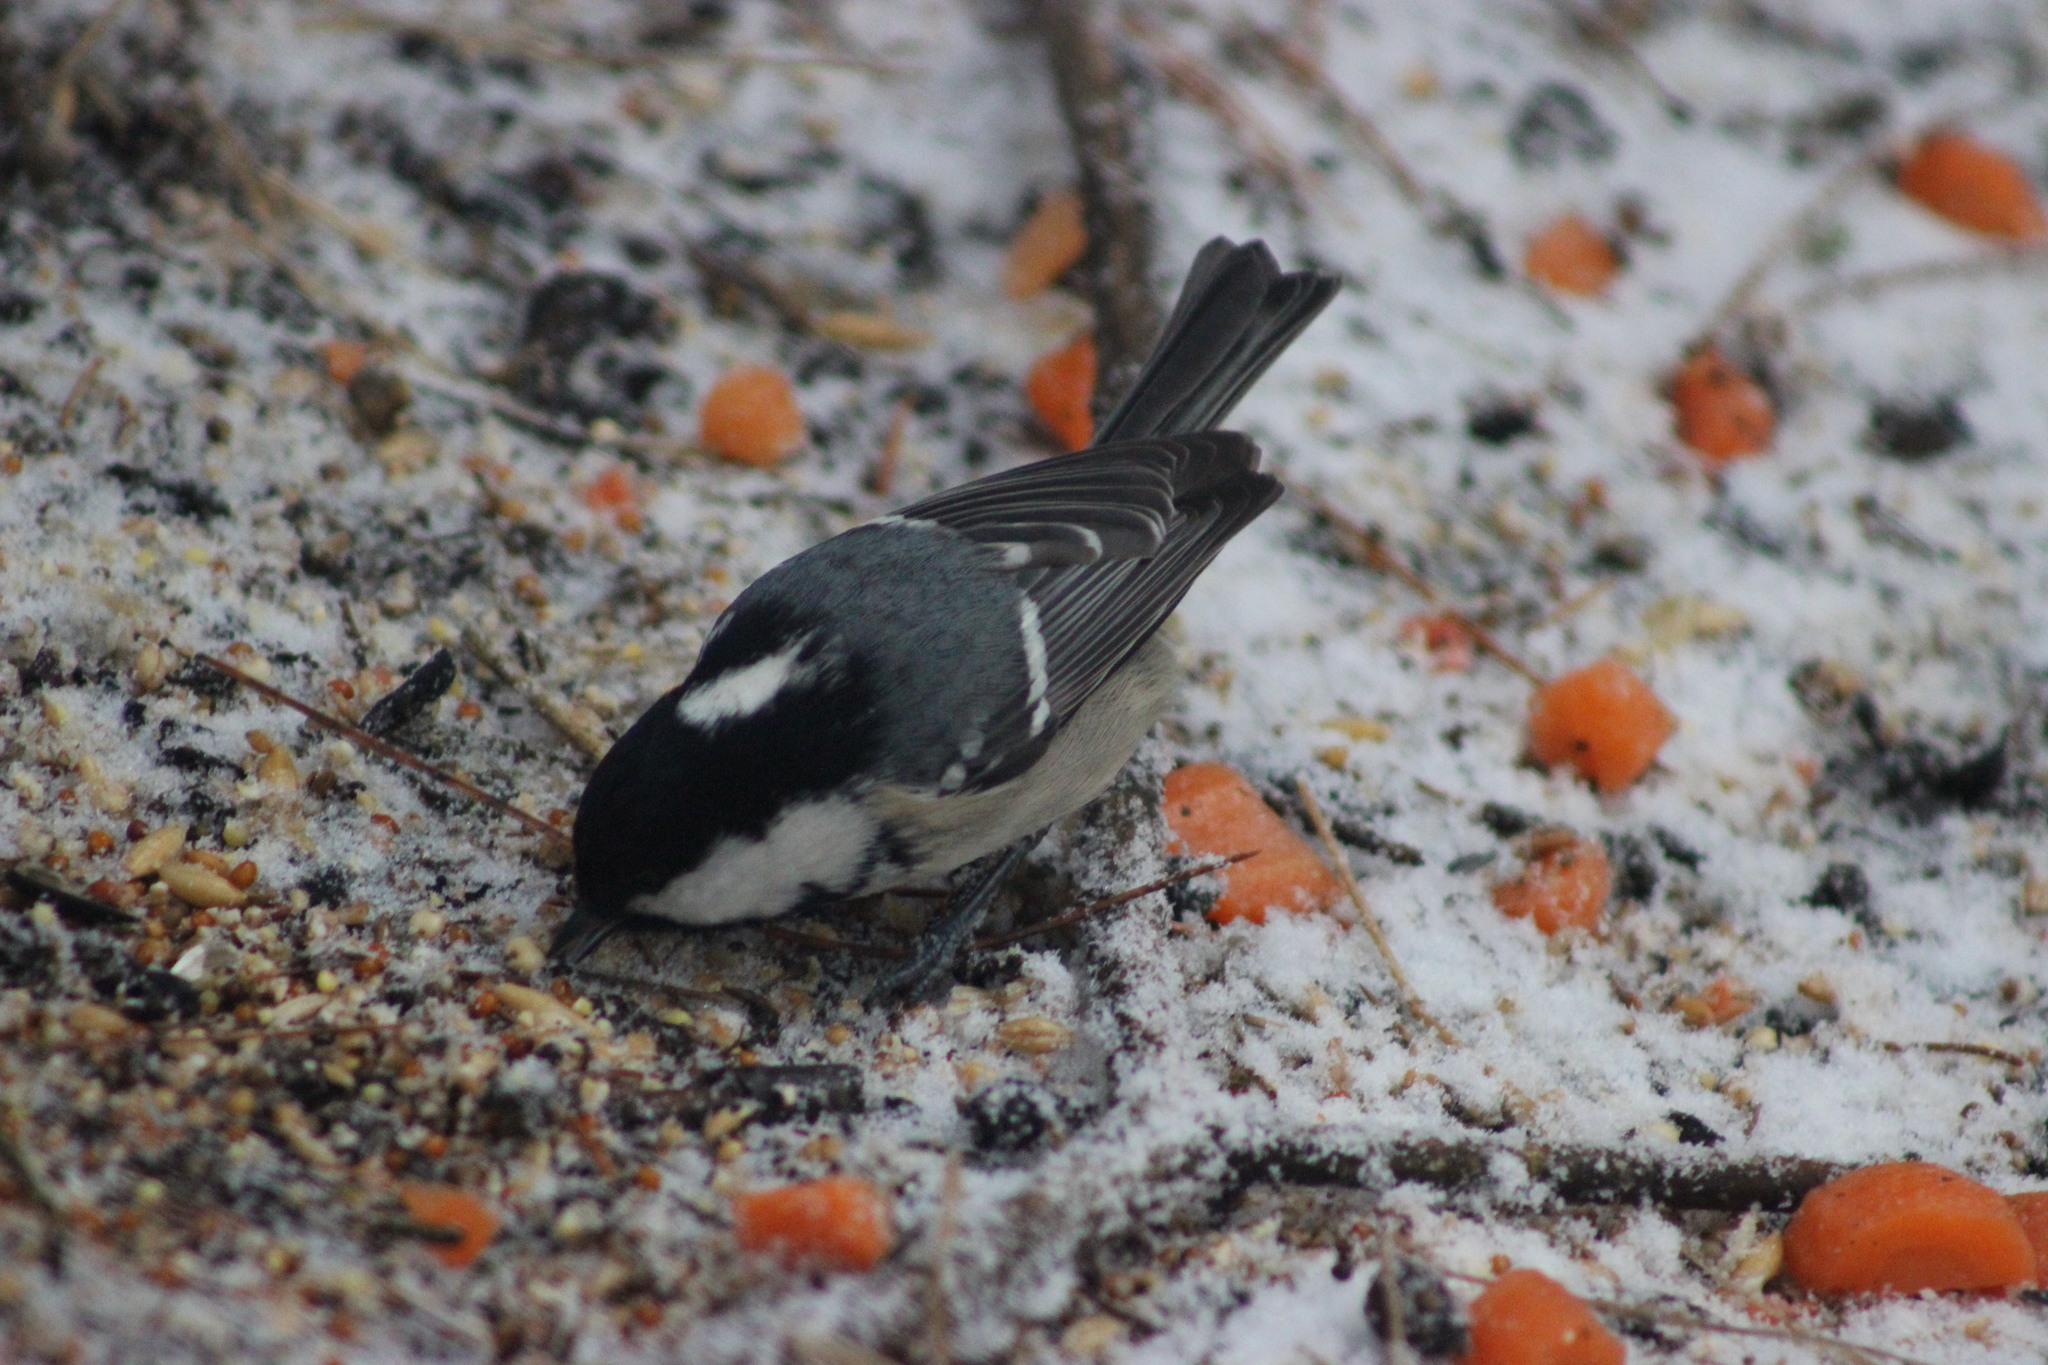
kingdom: Animalia
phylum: Chordata
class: Aves
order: Passeriformes
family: Paridae
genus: Periparus
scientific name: Periparus ater
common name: Coal tit
